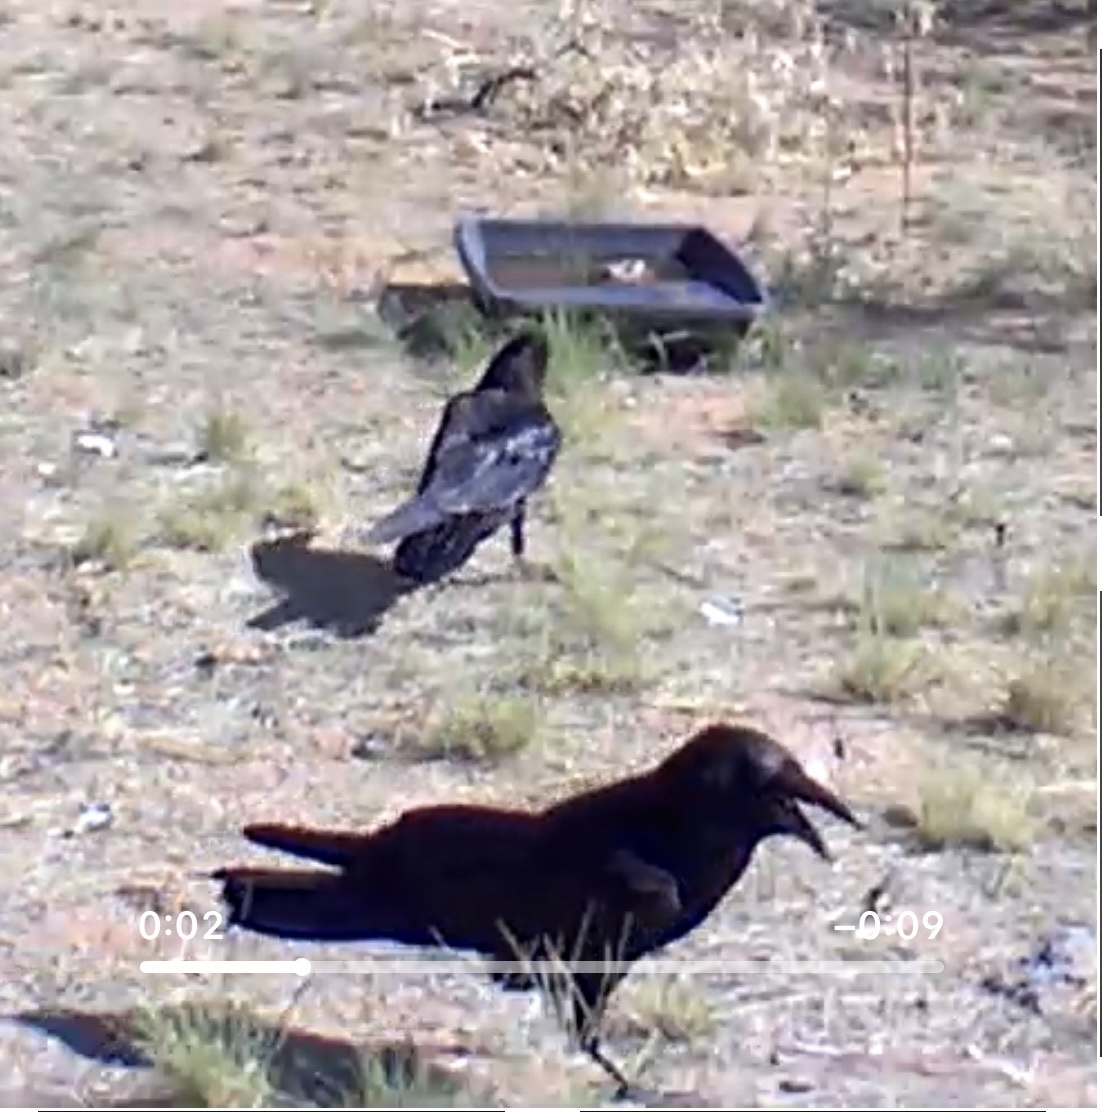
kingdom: Animalia
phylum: Chordata
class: Aves
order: Passeriformes
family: Corvidae
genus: Corvus
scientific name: Corvus corax
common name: Common raven
